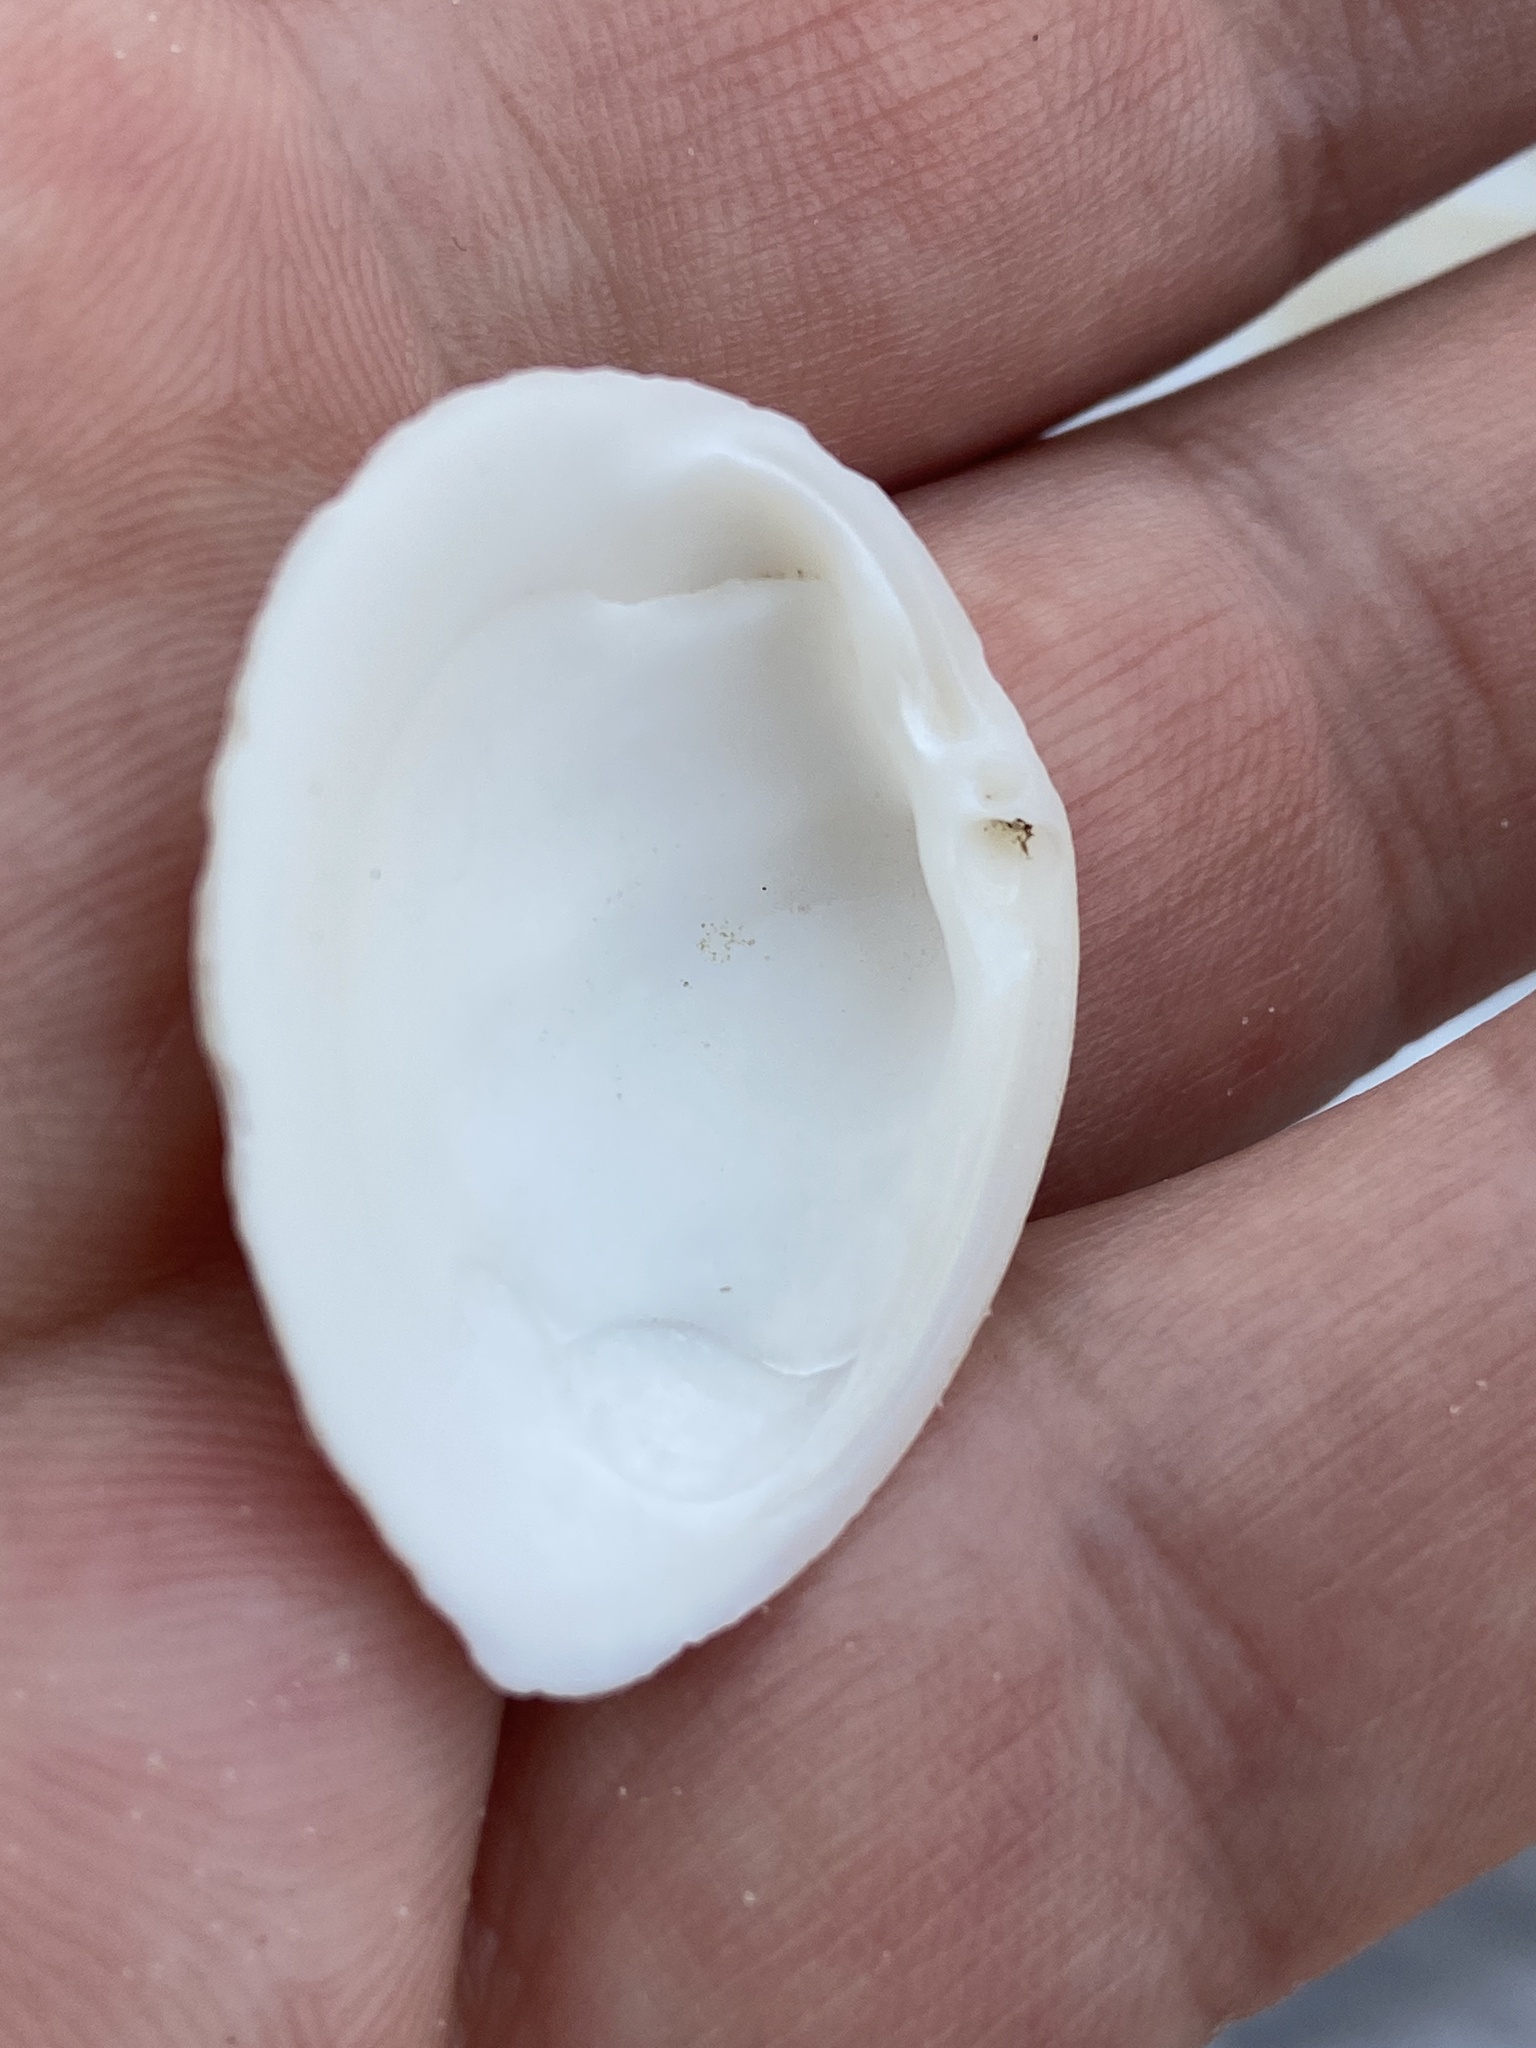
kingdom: Animalia
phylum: Mollusca
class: Bivalvia
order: Venerida
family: Mactridae
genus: Rangia
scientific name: Rangia cuneata
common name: Atlantic rangia
